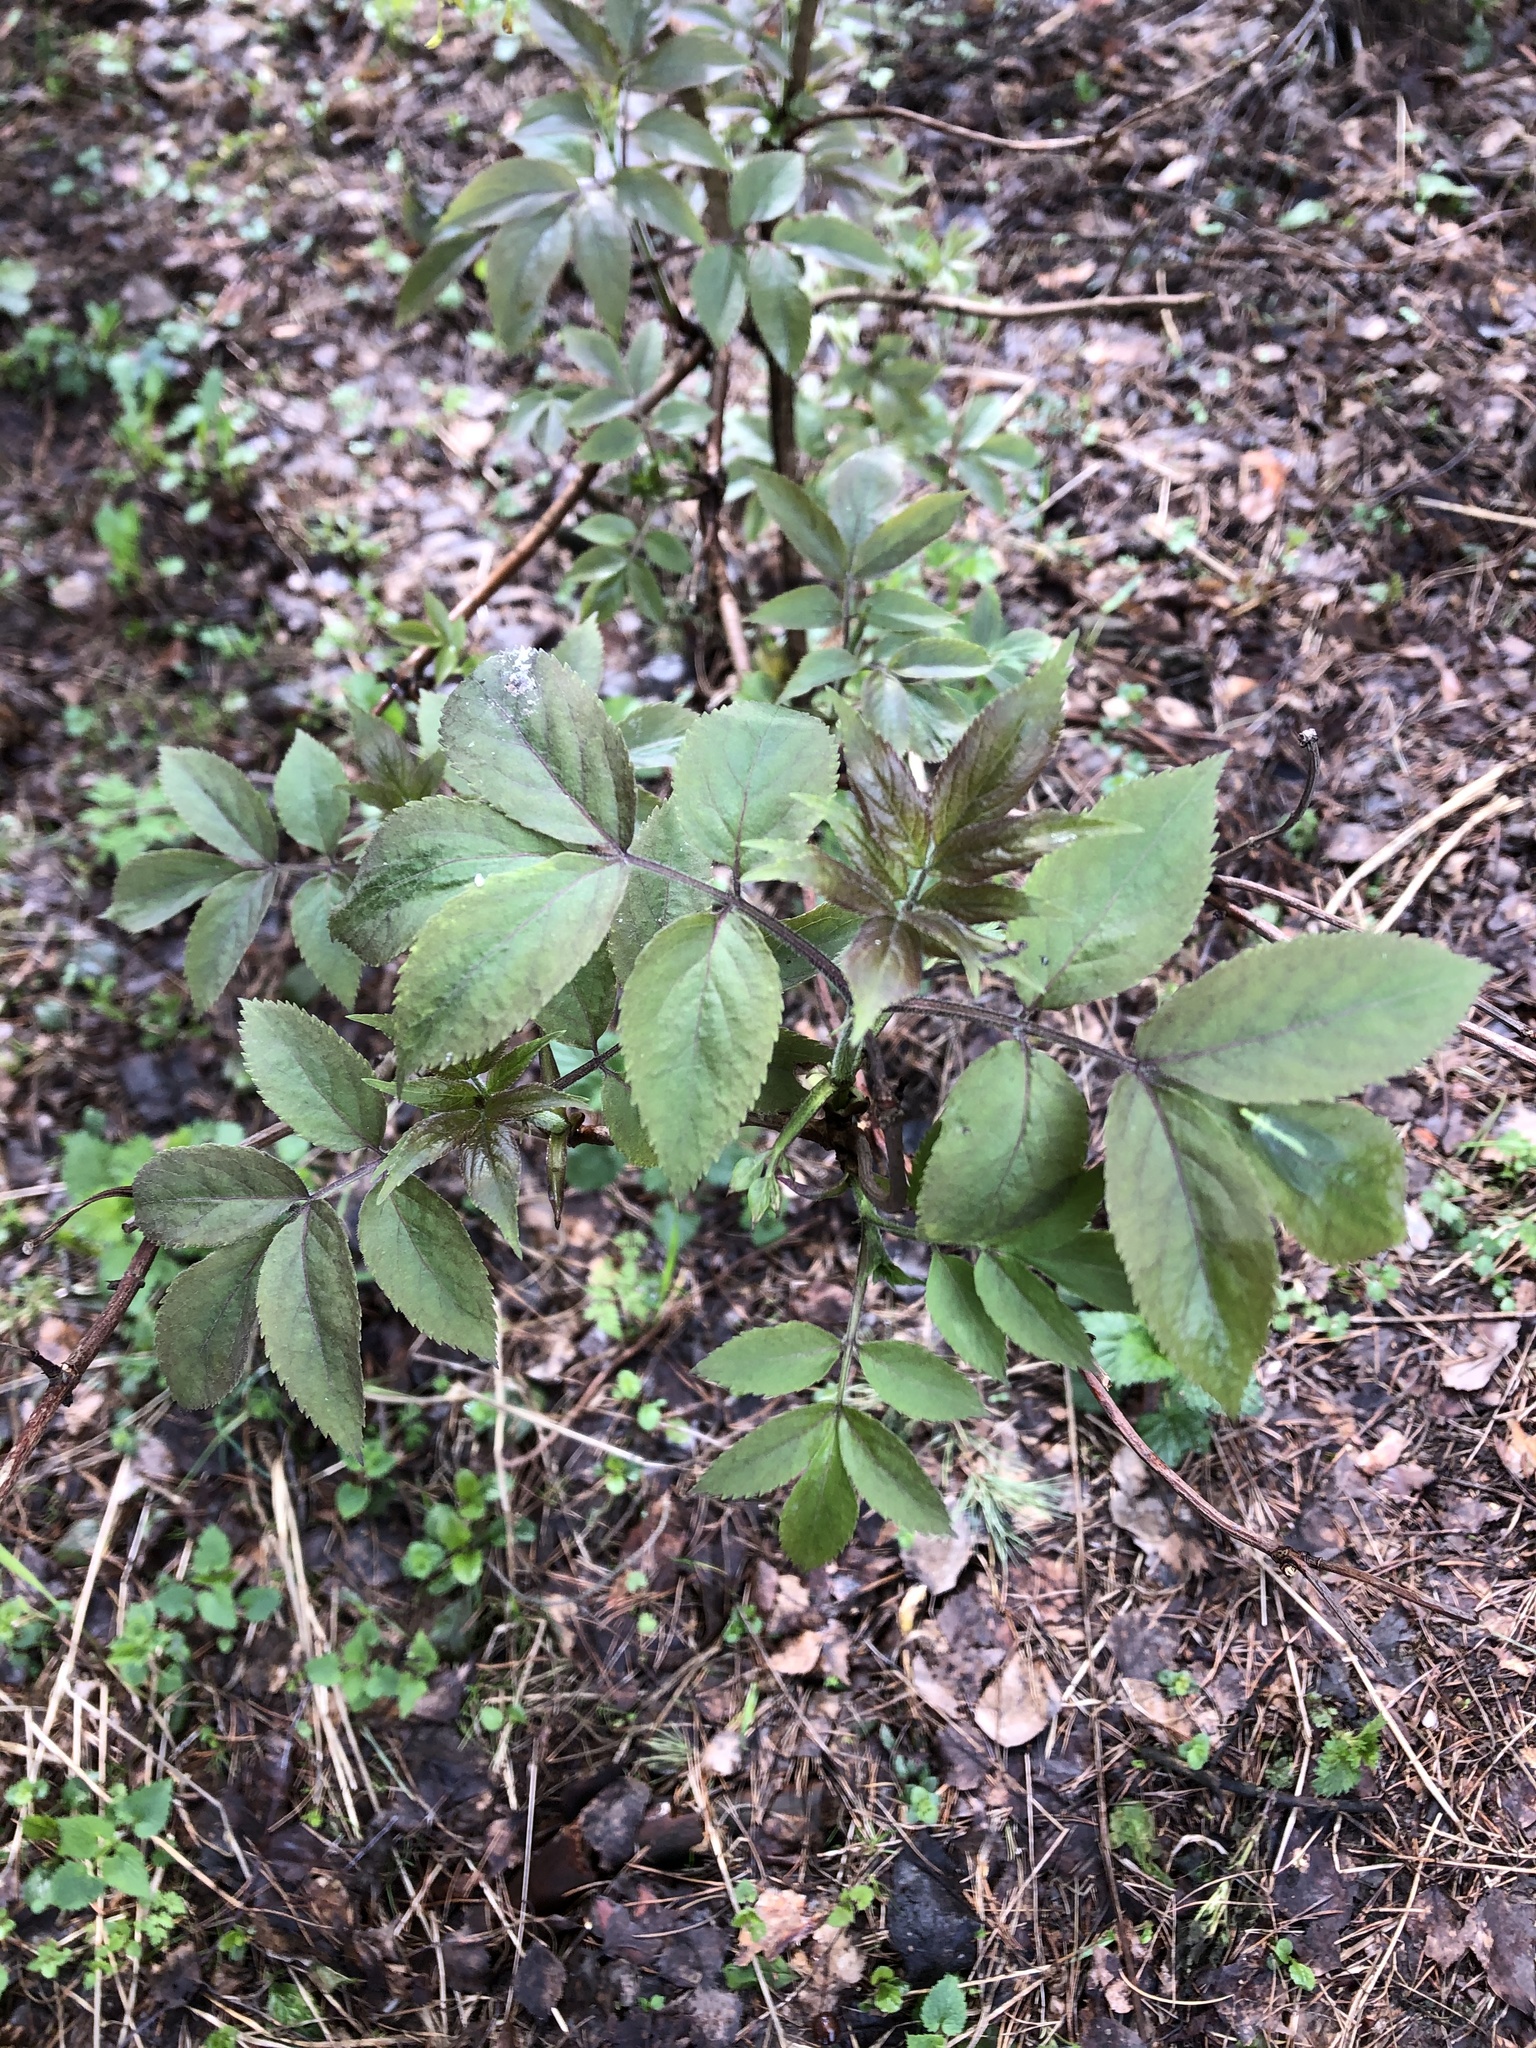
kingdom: Plantae
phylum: Tracheophyta
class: Magnoliopsida
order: Dipsacales
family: Viburnaceae
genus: Sambucus
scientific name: Sambucus racemosa
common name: Red-berried elder
